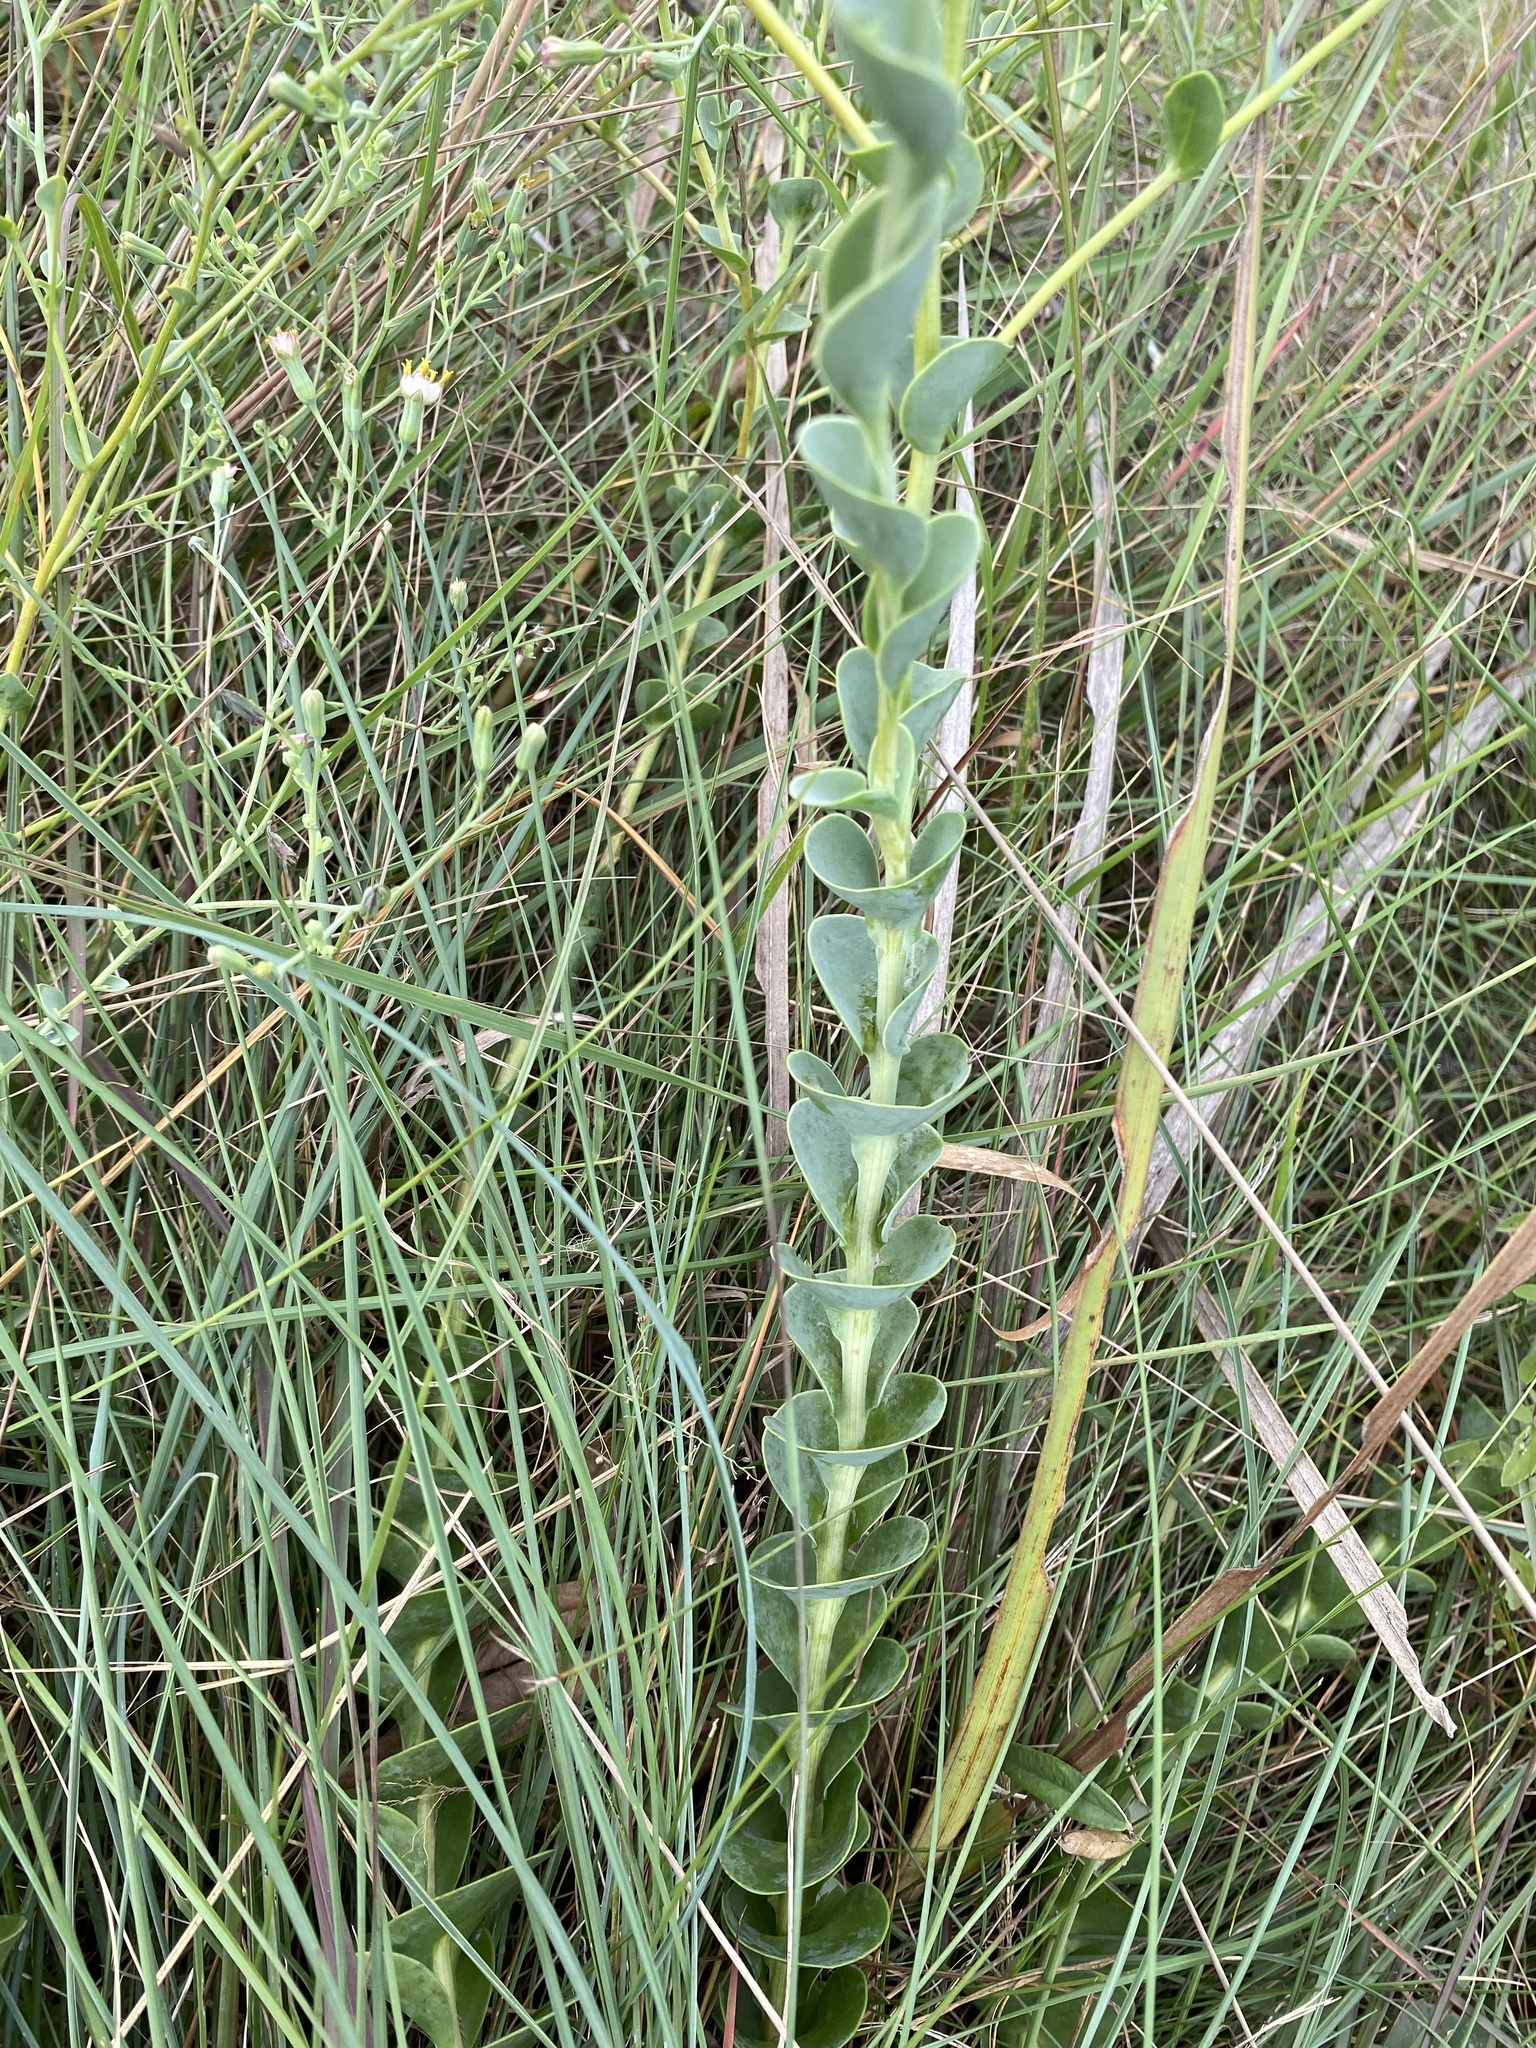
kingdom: Plantae
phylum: Tracheophyta
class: Magnoliopsida
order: Asterales
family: Asteraceae
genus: Lopholaena
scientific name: Lopholaena segmentata
